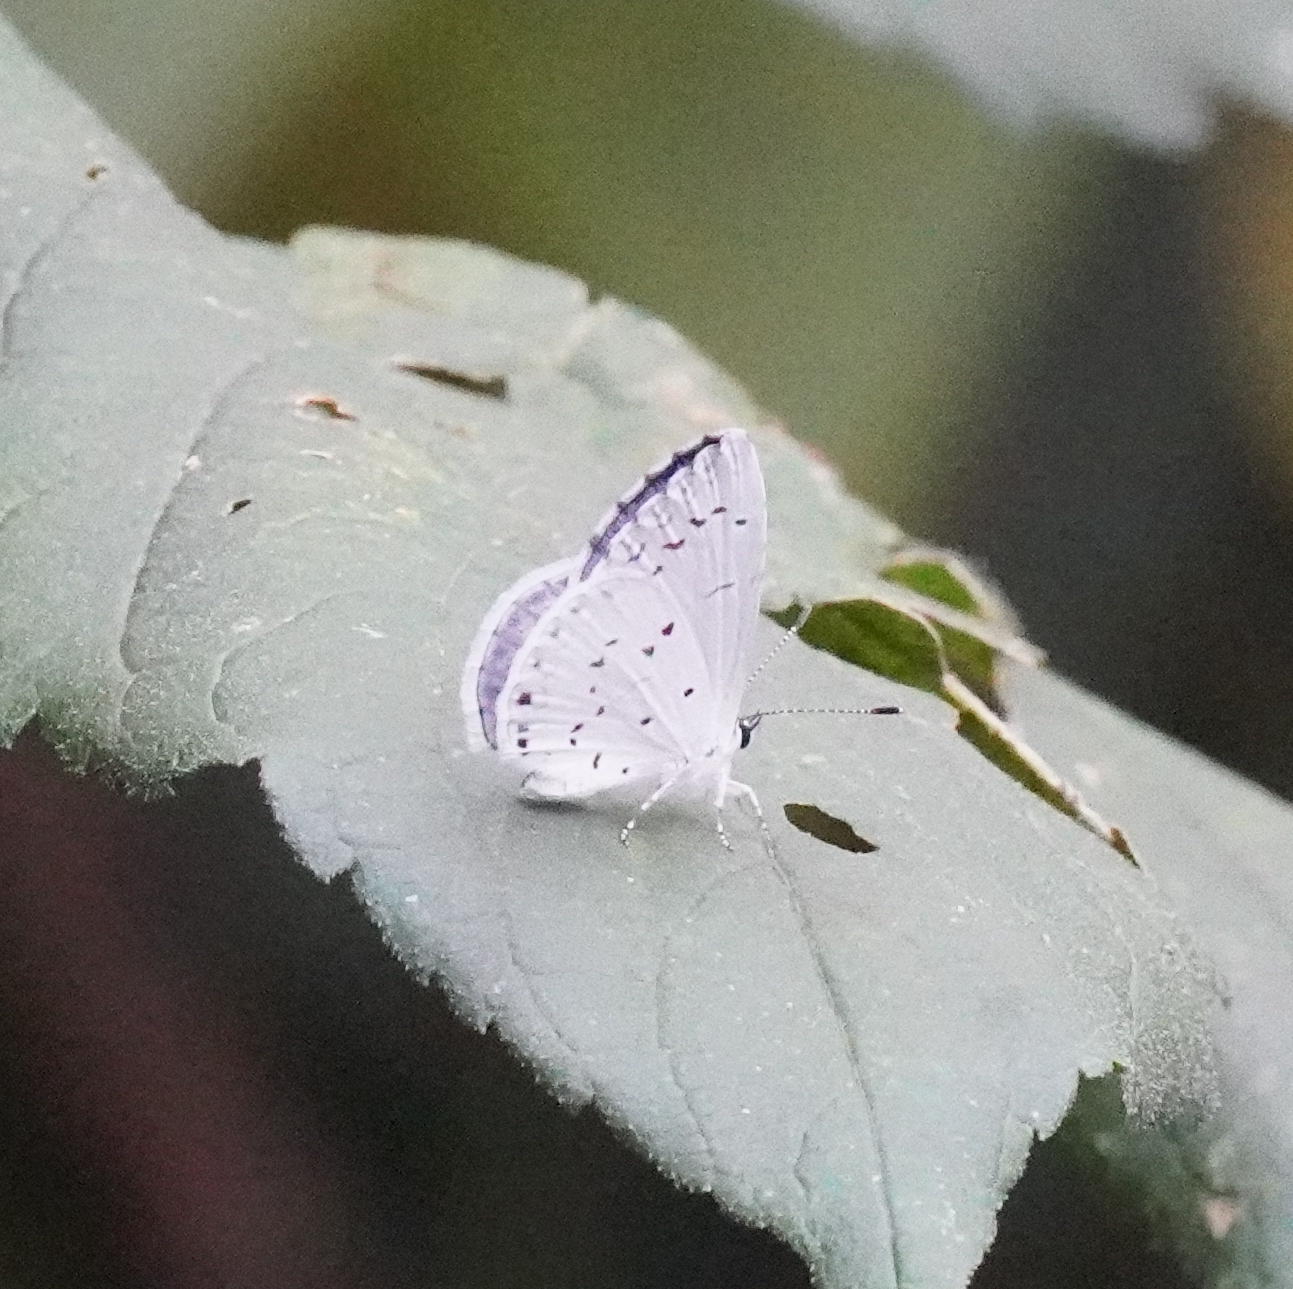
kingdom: Animalia
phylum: Arthropoda
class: Insecta
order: Lepidoptera
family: Lycaenidae
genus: Cyaniris
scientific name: Cyaniris neglecta
